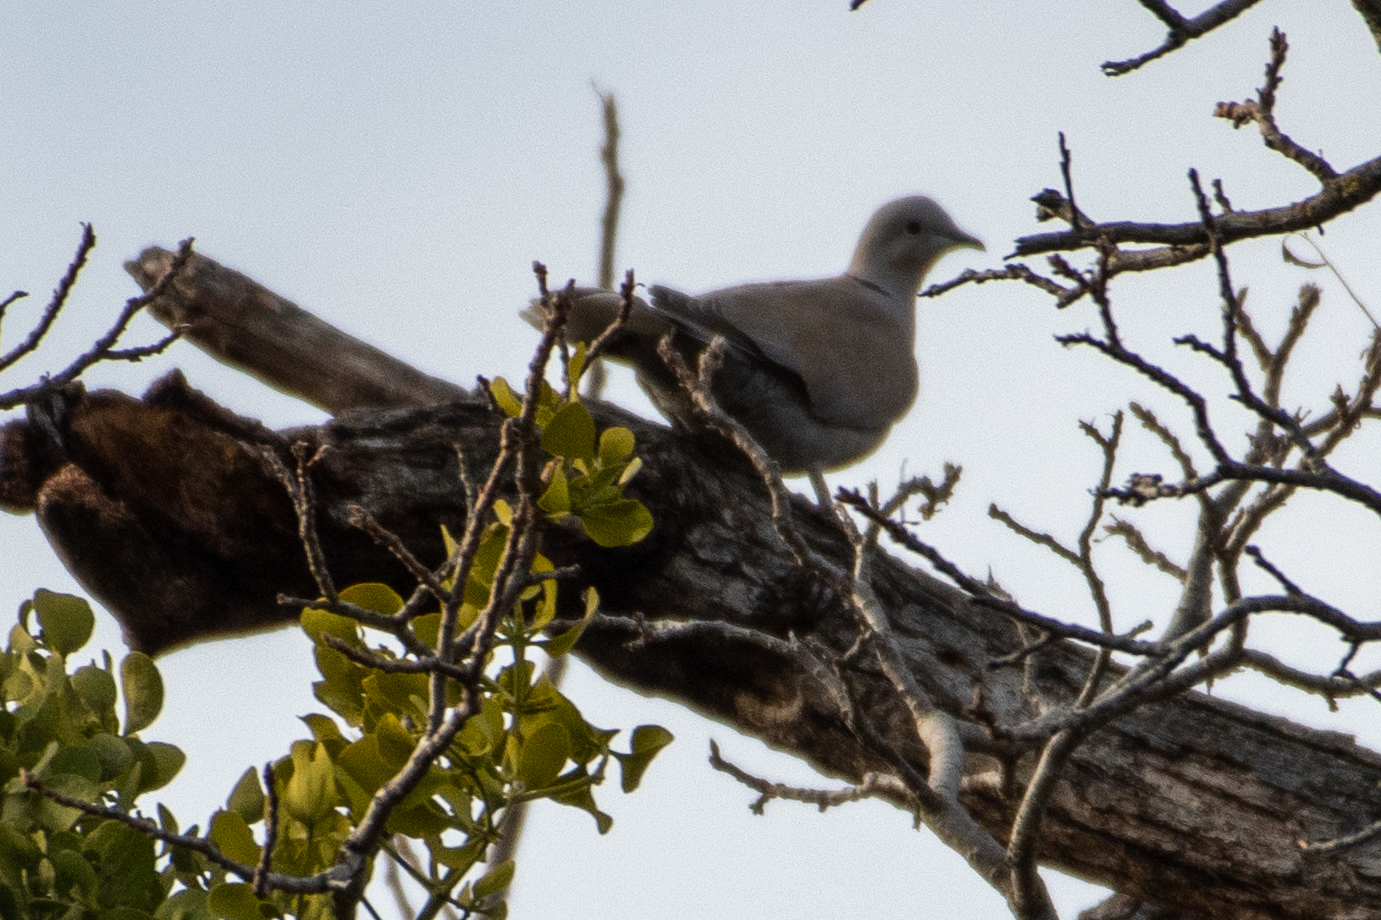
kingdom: Animalia
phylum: Chordata
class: Aves
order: Columbiformes
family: Columbidae
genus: Streptopelia
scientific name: Streptopelia decaocto
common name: Eurasian collared dove
